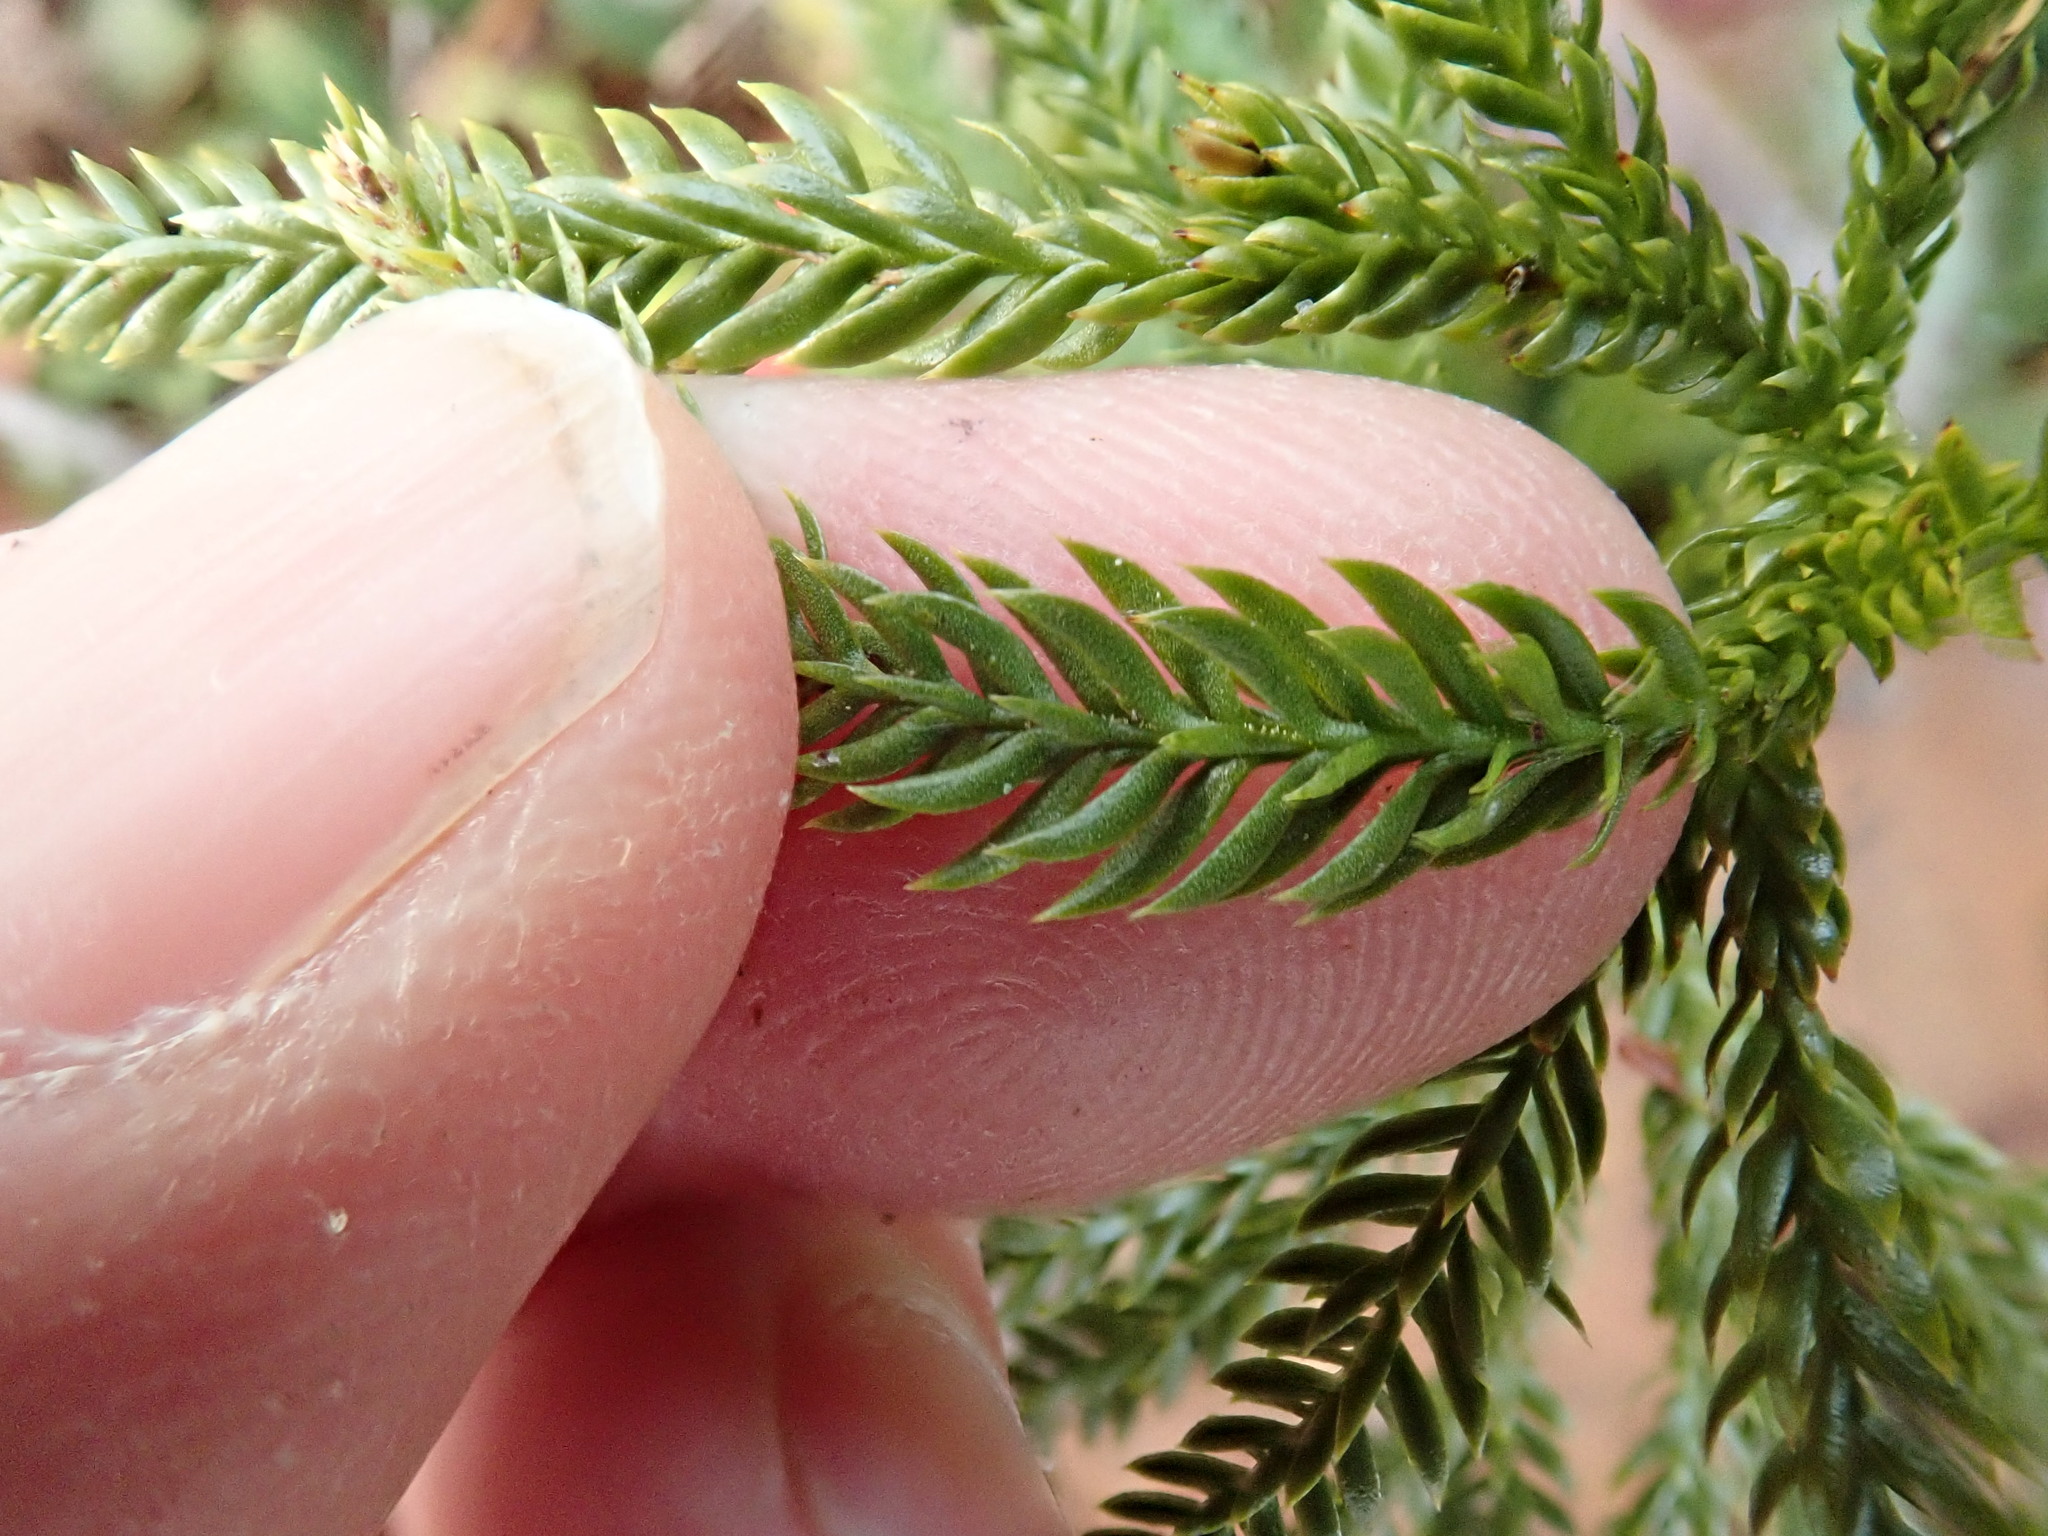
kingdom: Plantae
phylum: Tracheophyta
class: Lycopodiopsida
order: Lycopodiales
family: Lycopodiaceae
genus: Dendrolycopodium
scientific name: Dendrolycopodium obscurum
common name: Common ground-pine
